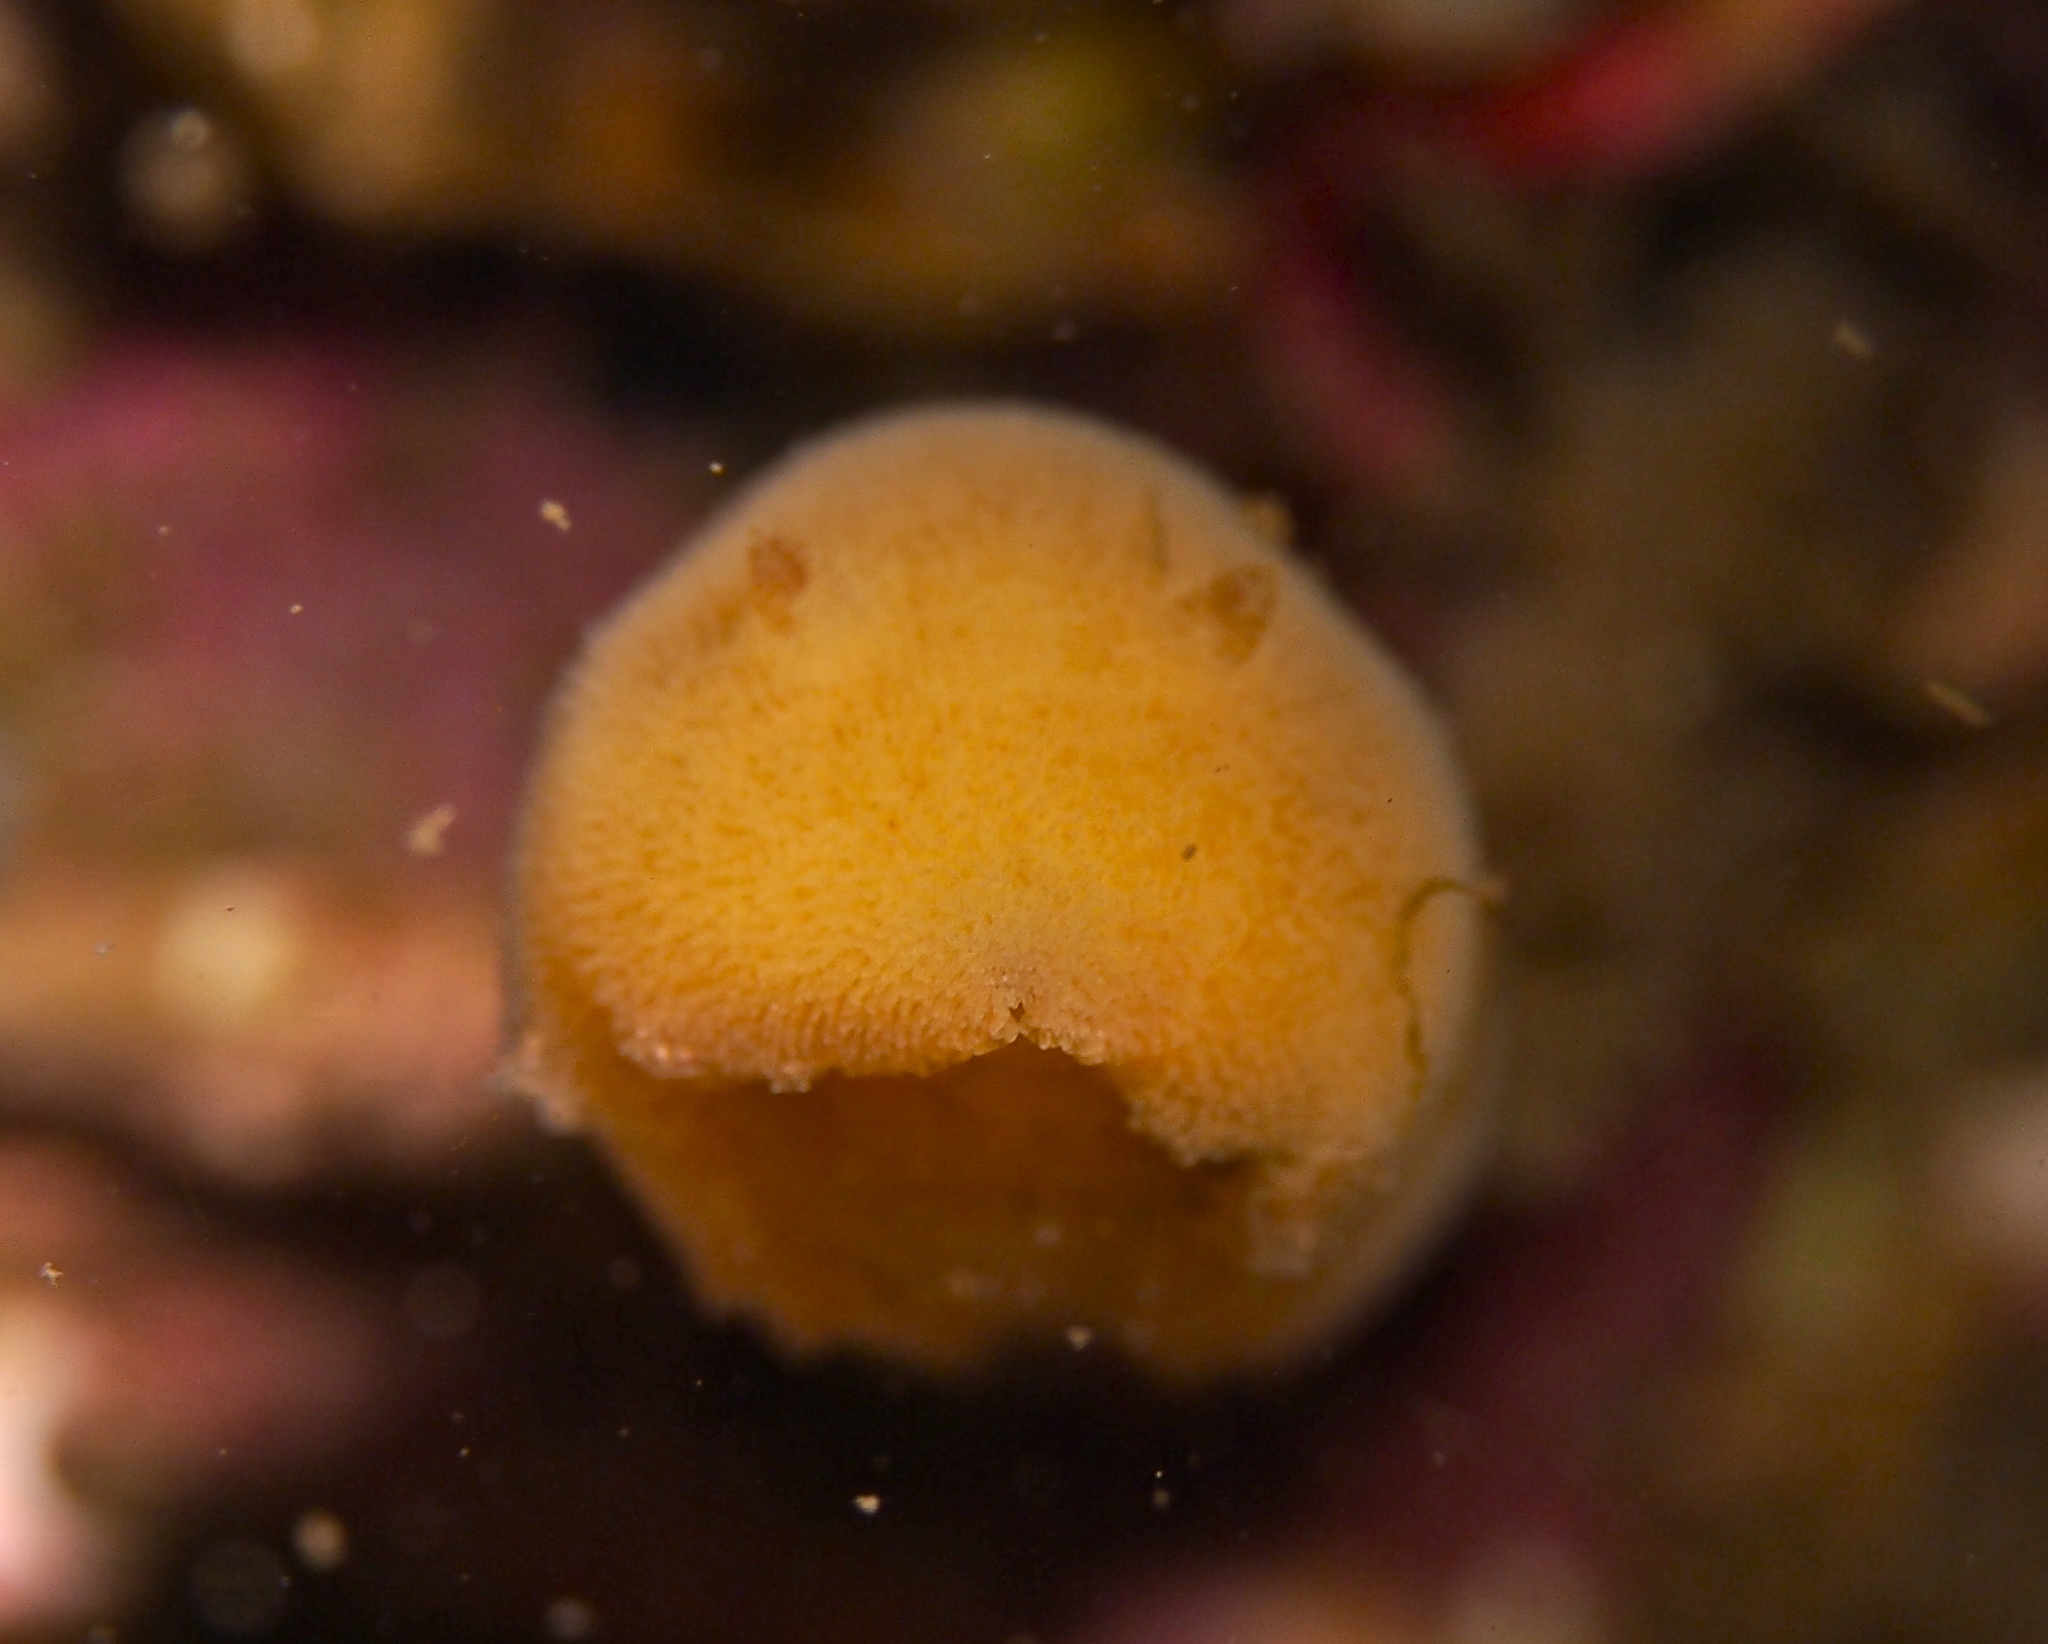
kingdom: Animalia
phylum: Mollusca
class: Gastropoda
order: Nudibranchia
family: Discodorididae
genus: Jorunna
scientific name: Jorunna tomentosa
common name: Grey sea slug
